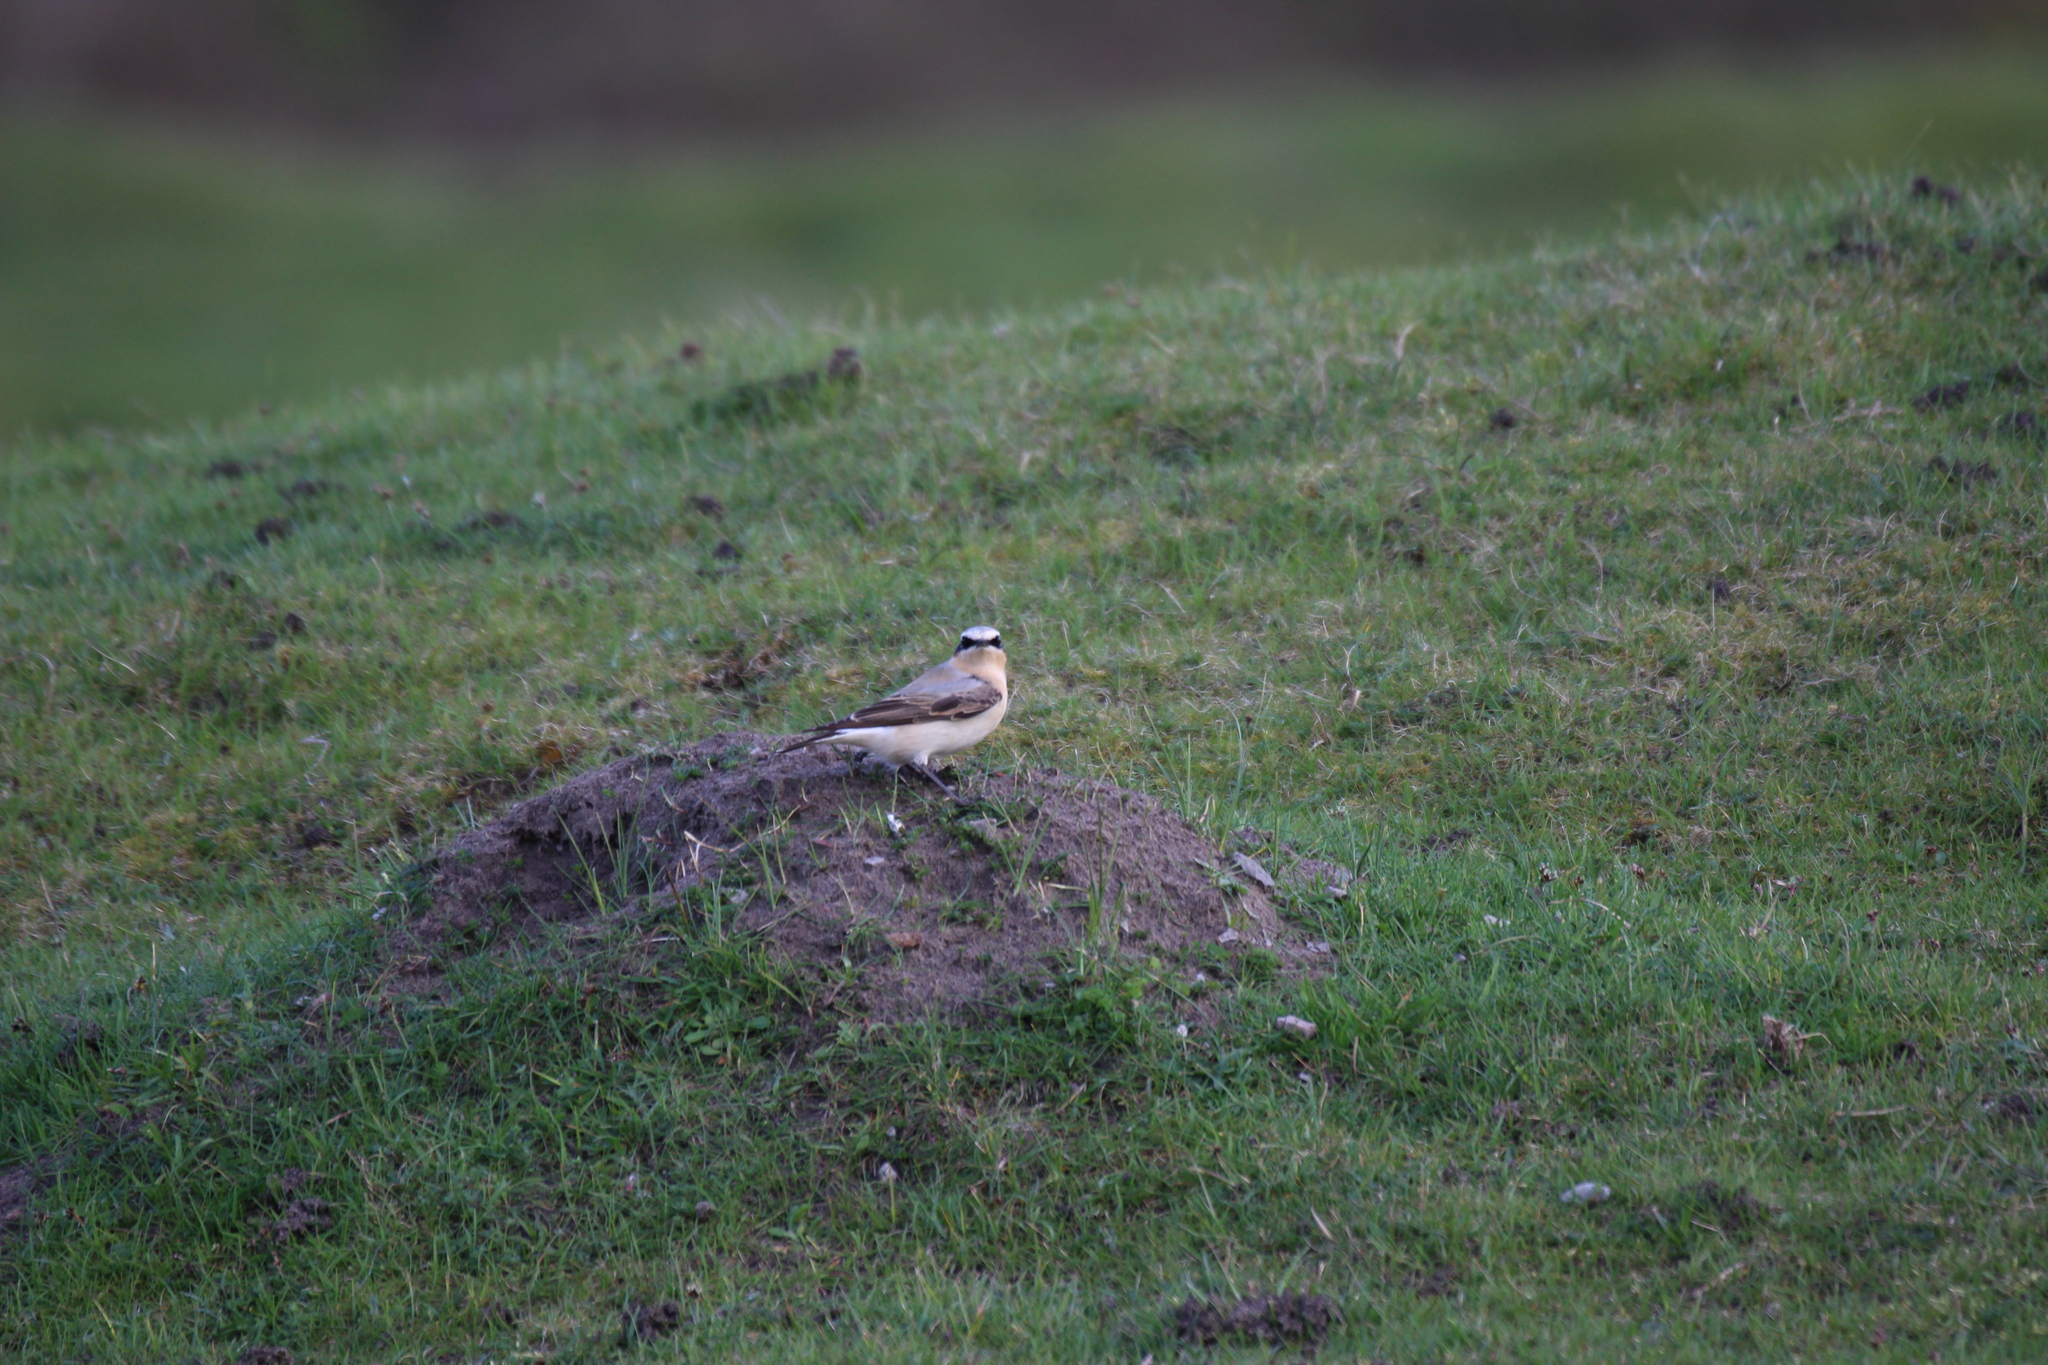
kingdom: Animalia
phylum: Chordata
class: Aves
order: Passeriformes
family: Muscicapidae
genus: Oenanthe
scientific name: Oenanthe oenanthe
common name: Northern wheatear
